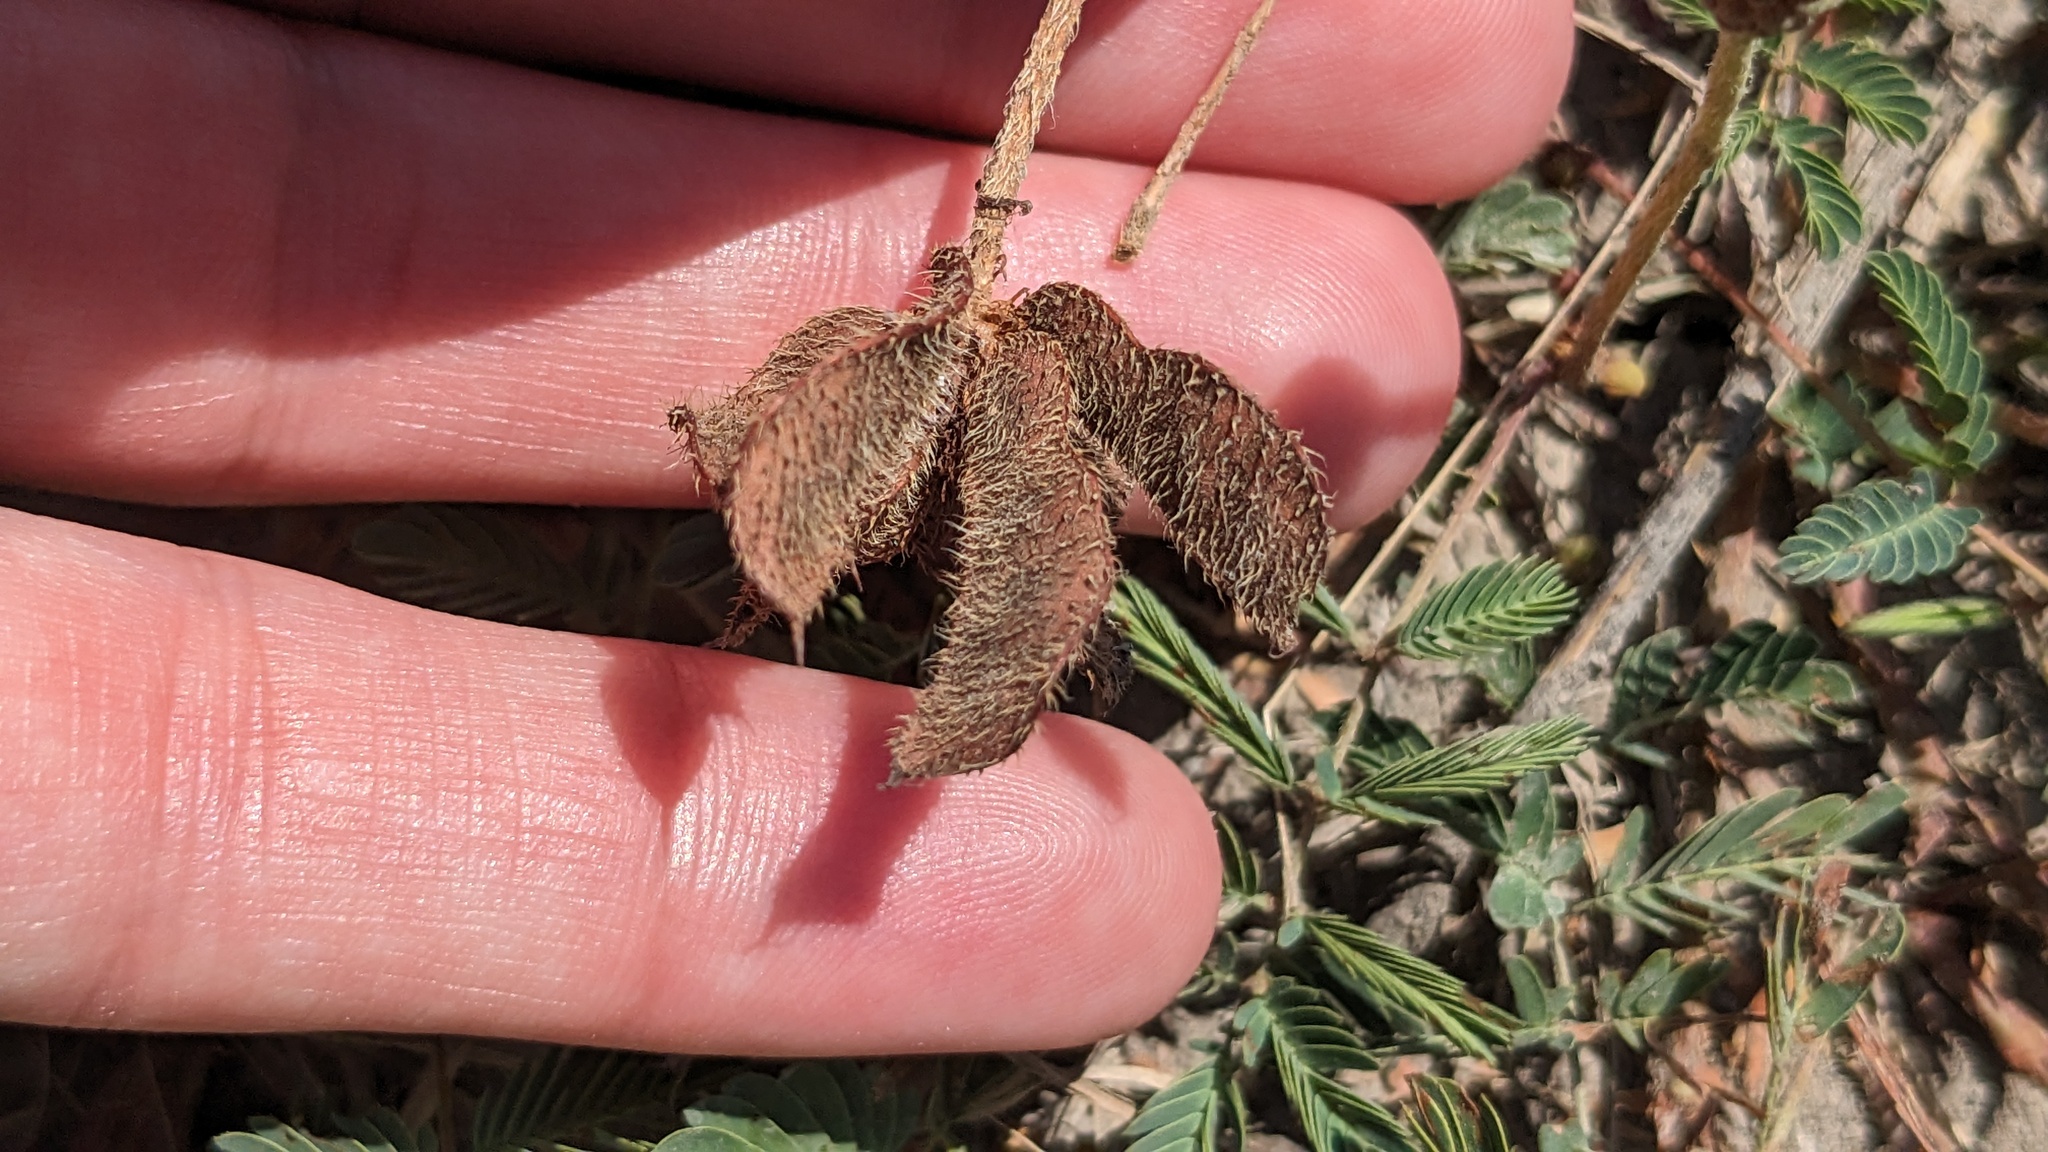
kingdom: Plantae
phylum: Tracheophyta
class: Magnoliopsida
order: Fabales
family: Fabaceae
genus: Mimosa
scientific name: Mimosa strigillosa
